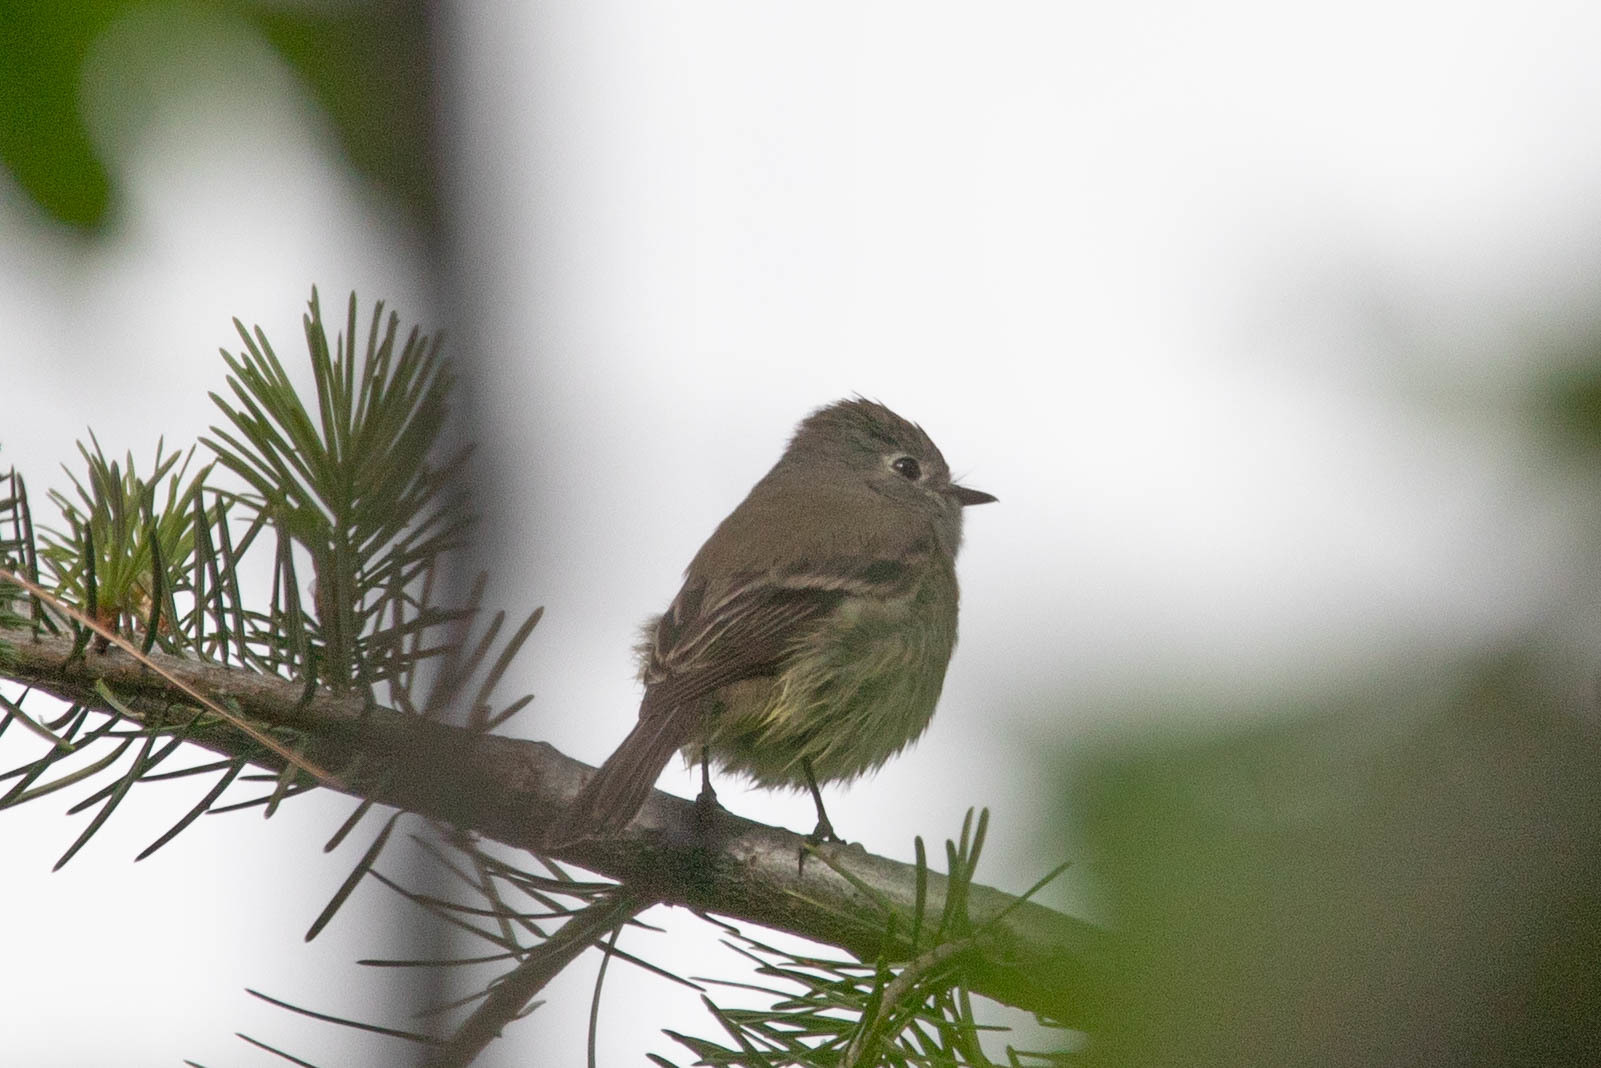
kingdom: Animalia
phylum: Chordata
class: Aves
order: Passeriformes
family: Tyrannidae
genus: Empidonax
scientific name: Empidonax hammondii
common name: Hammond's flycatcher
